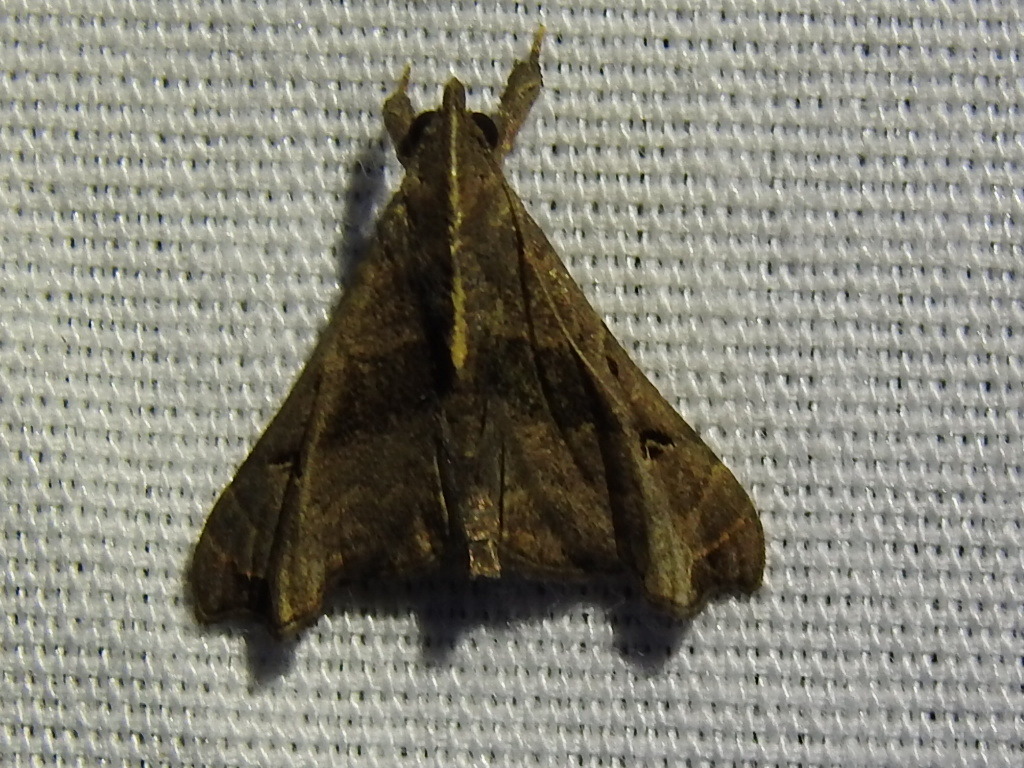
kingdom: Animalia
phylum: Arthropoda
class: Insecta
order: Lepidoptera
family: Erebidae
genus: Palthis
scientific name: Palthis asopialis
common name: Faint-spotted palthis moth
